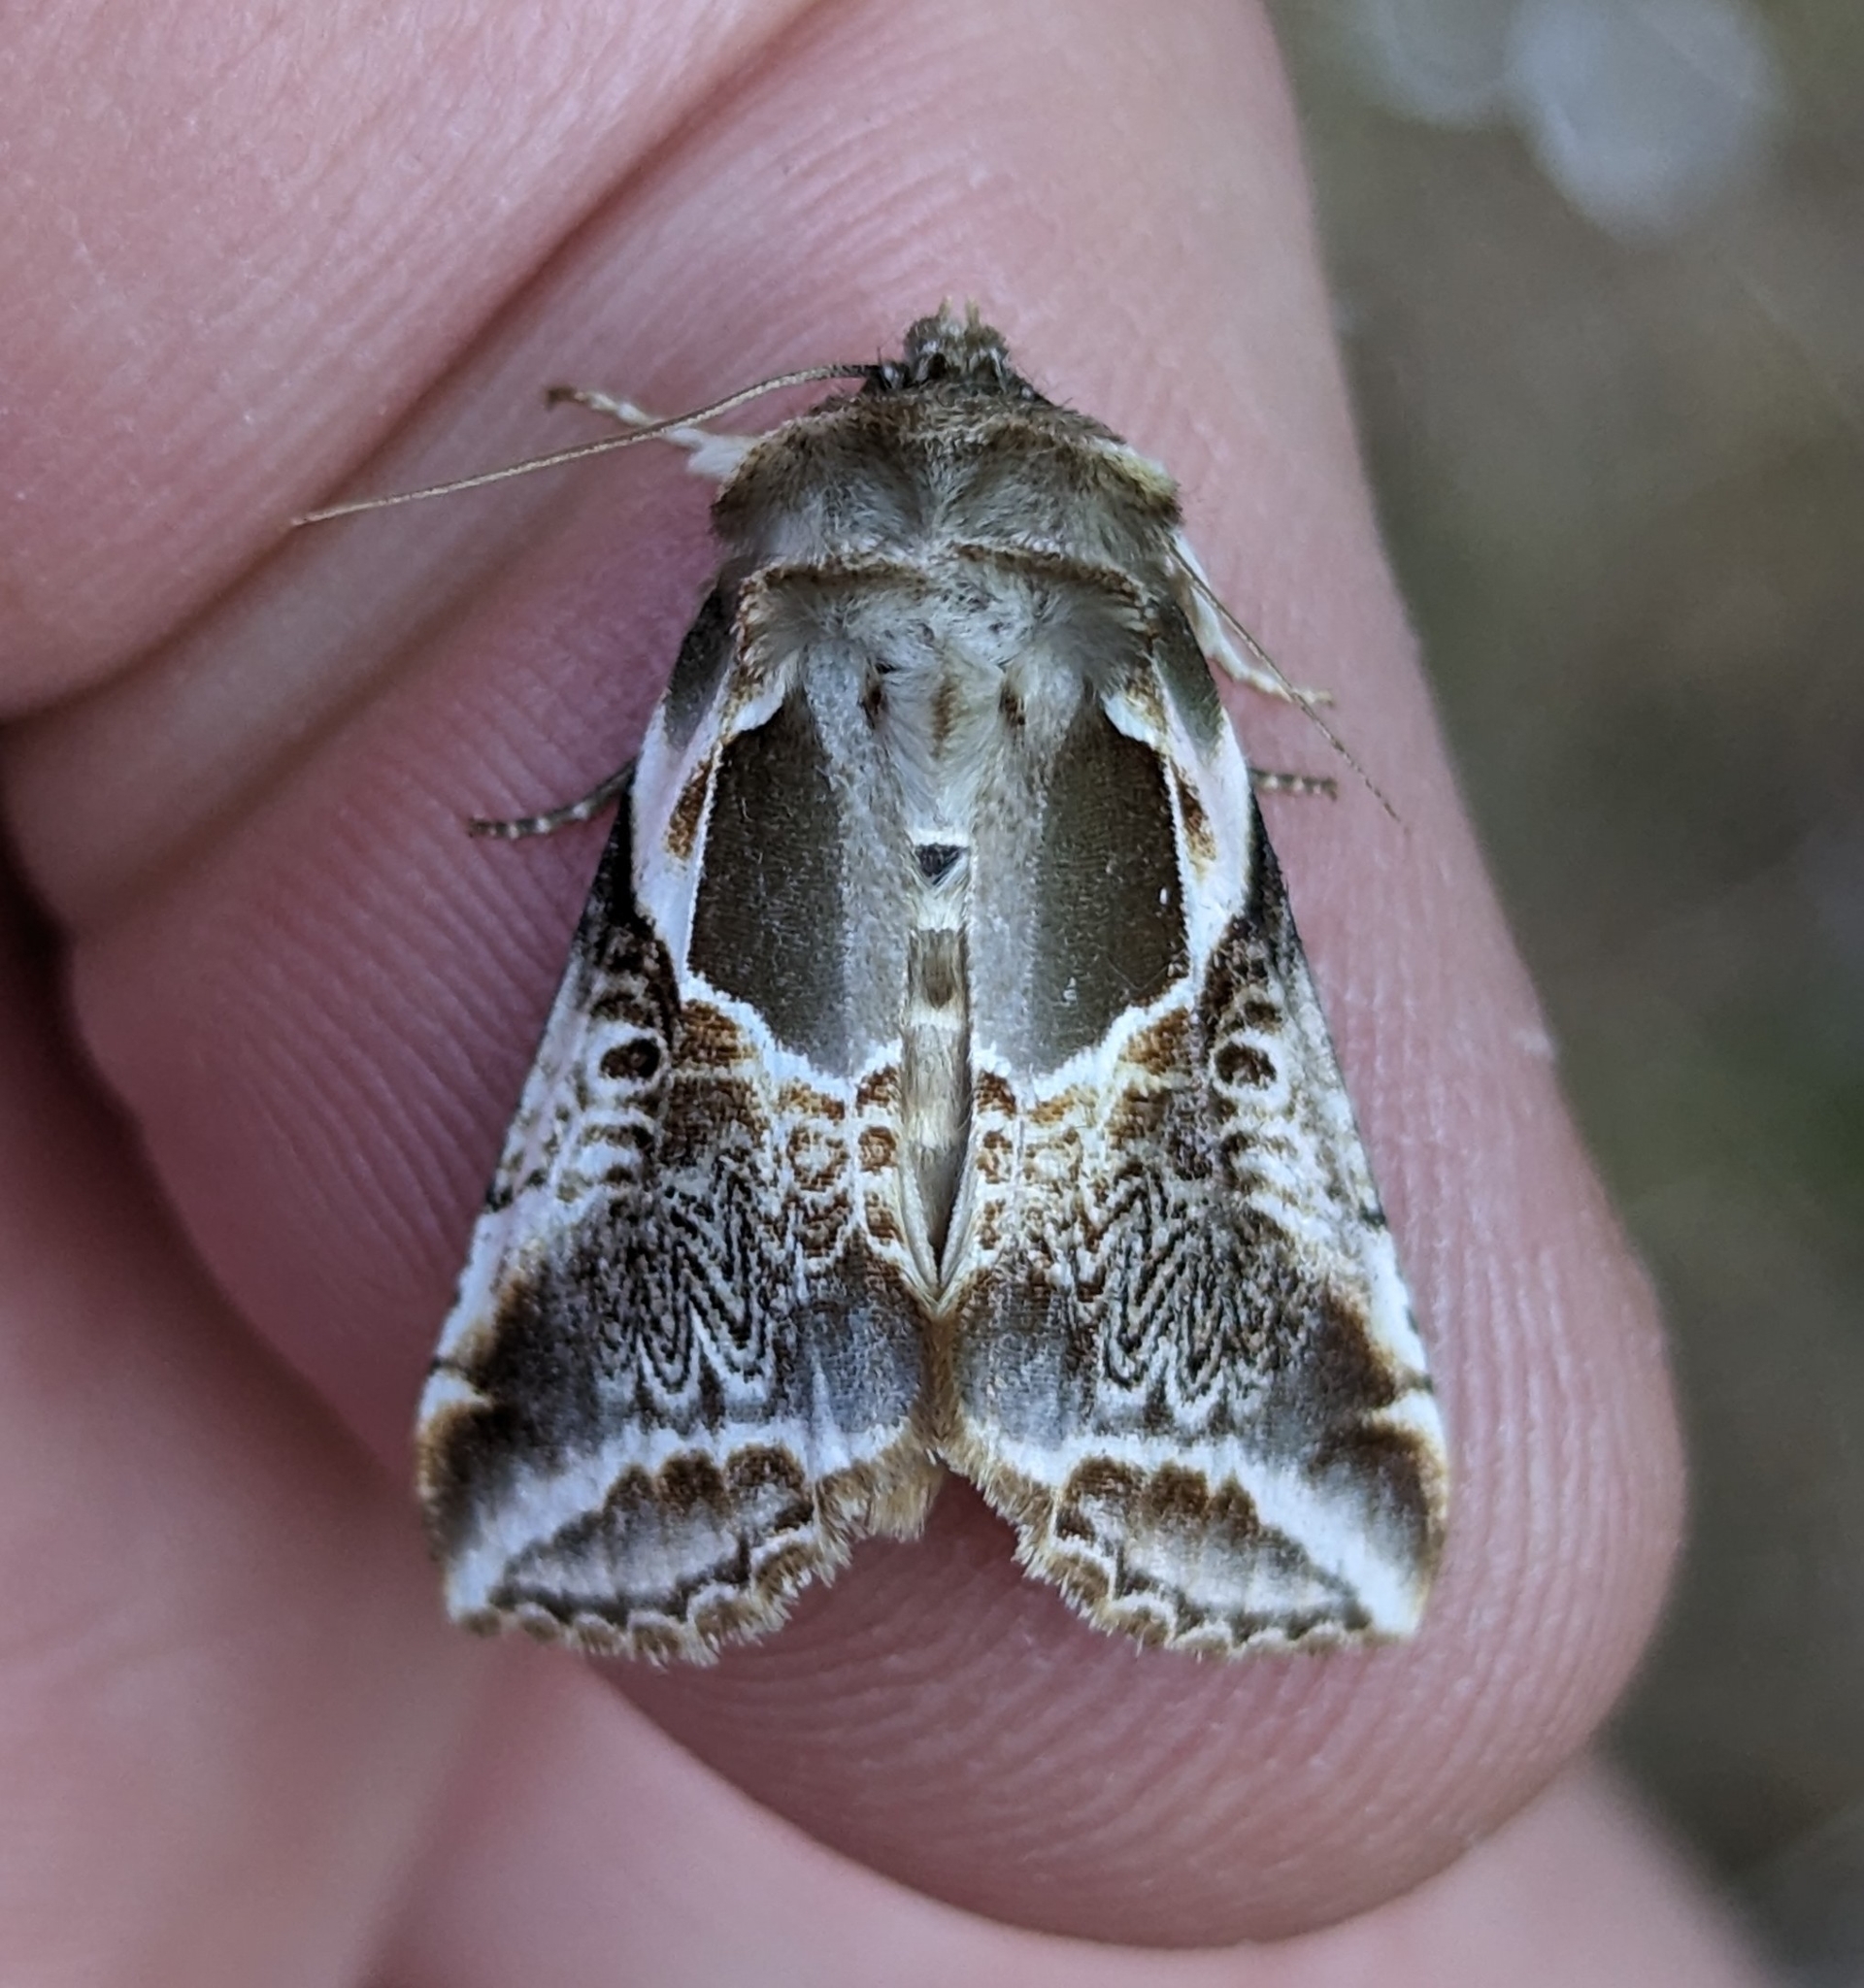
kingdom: Animalia
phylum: Arthropoda
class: Insecta
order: Lepidoptera
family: Drepanidae
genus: Habrosyne
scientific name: Habrosyne scripta
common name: Lettered habrosyne moth
